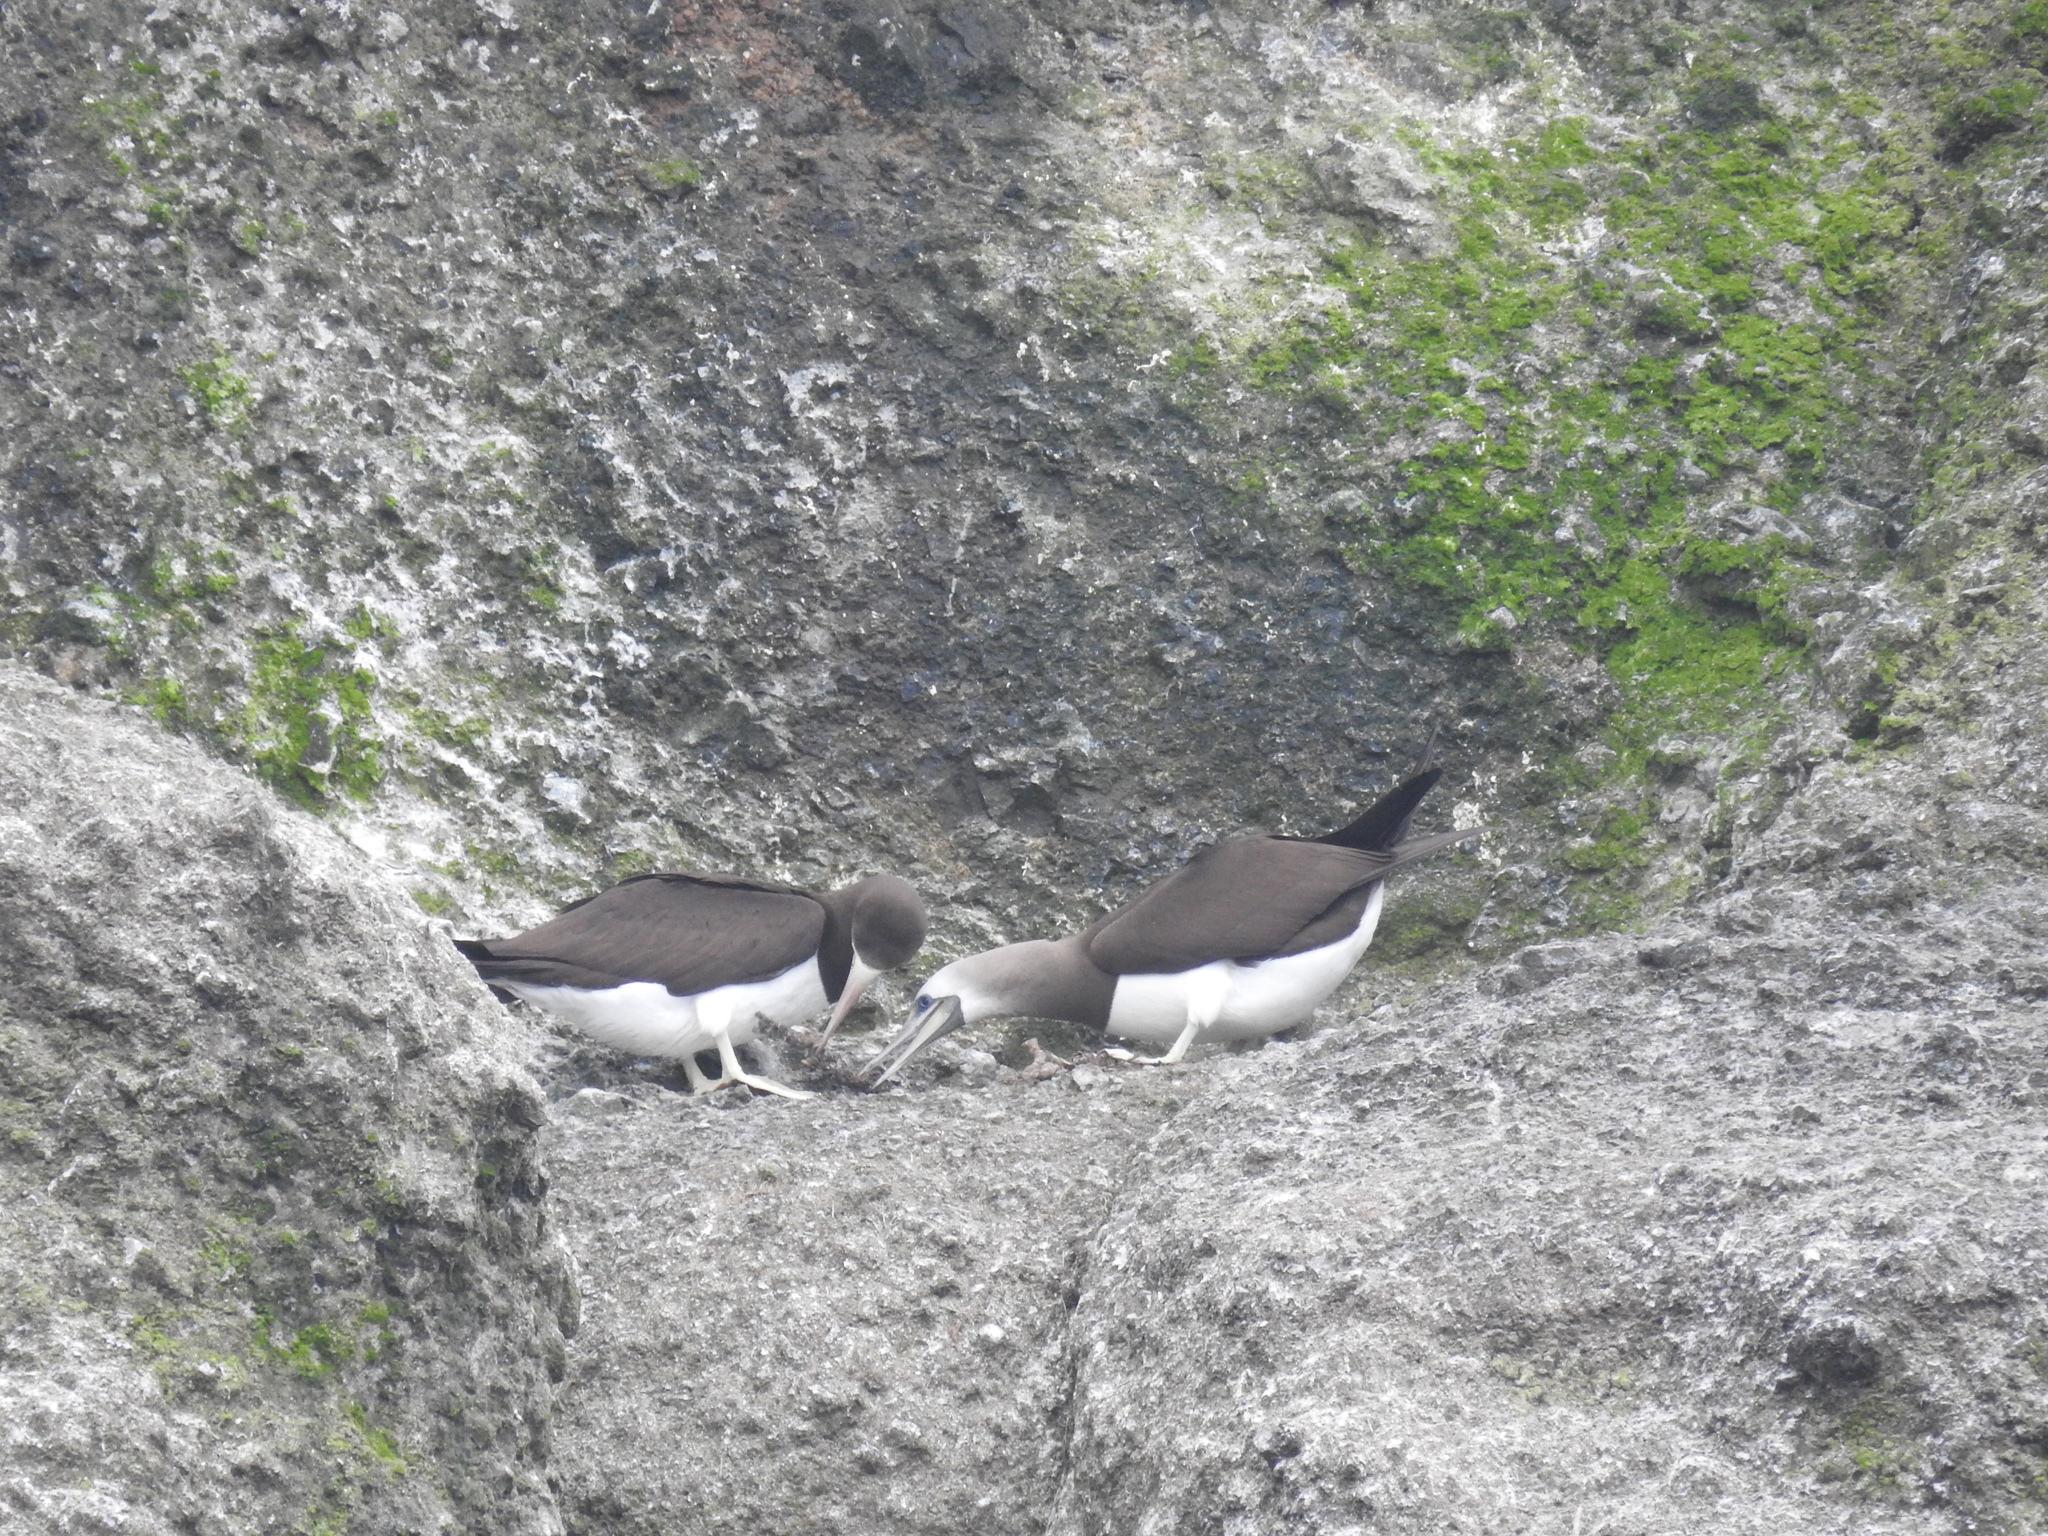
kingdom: Animalia
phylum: Chordata
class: Aves
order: Suliformes
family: Sulidae
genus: Sula
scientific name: Sula leucogaster
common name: Brown booby
